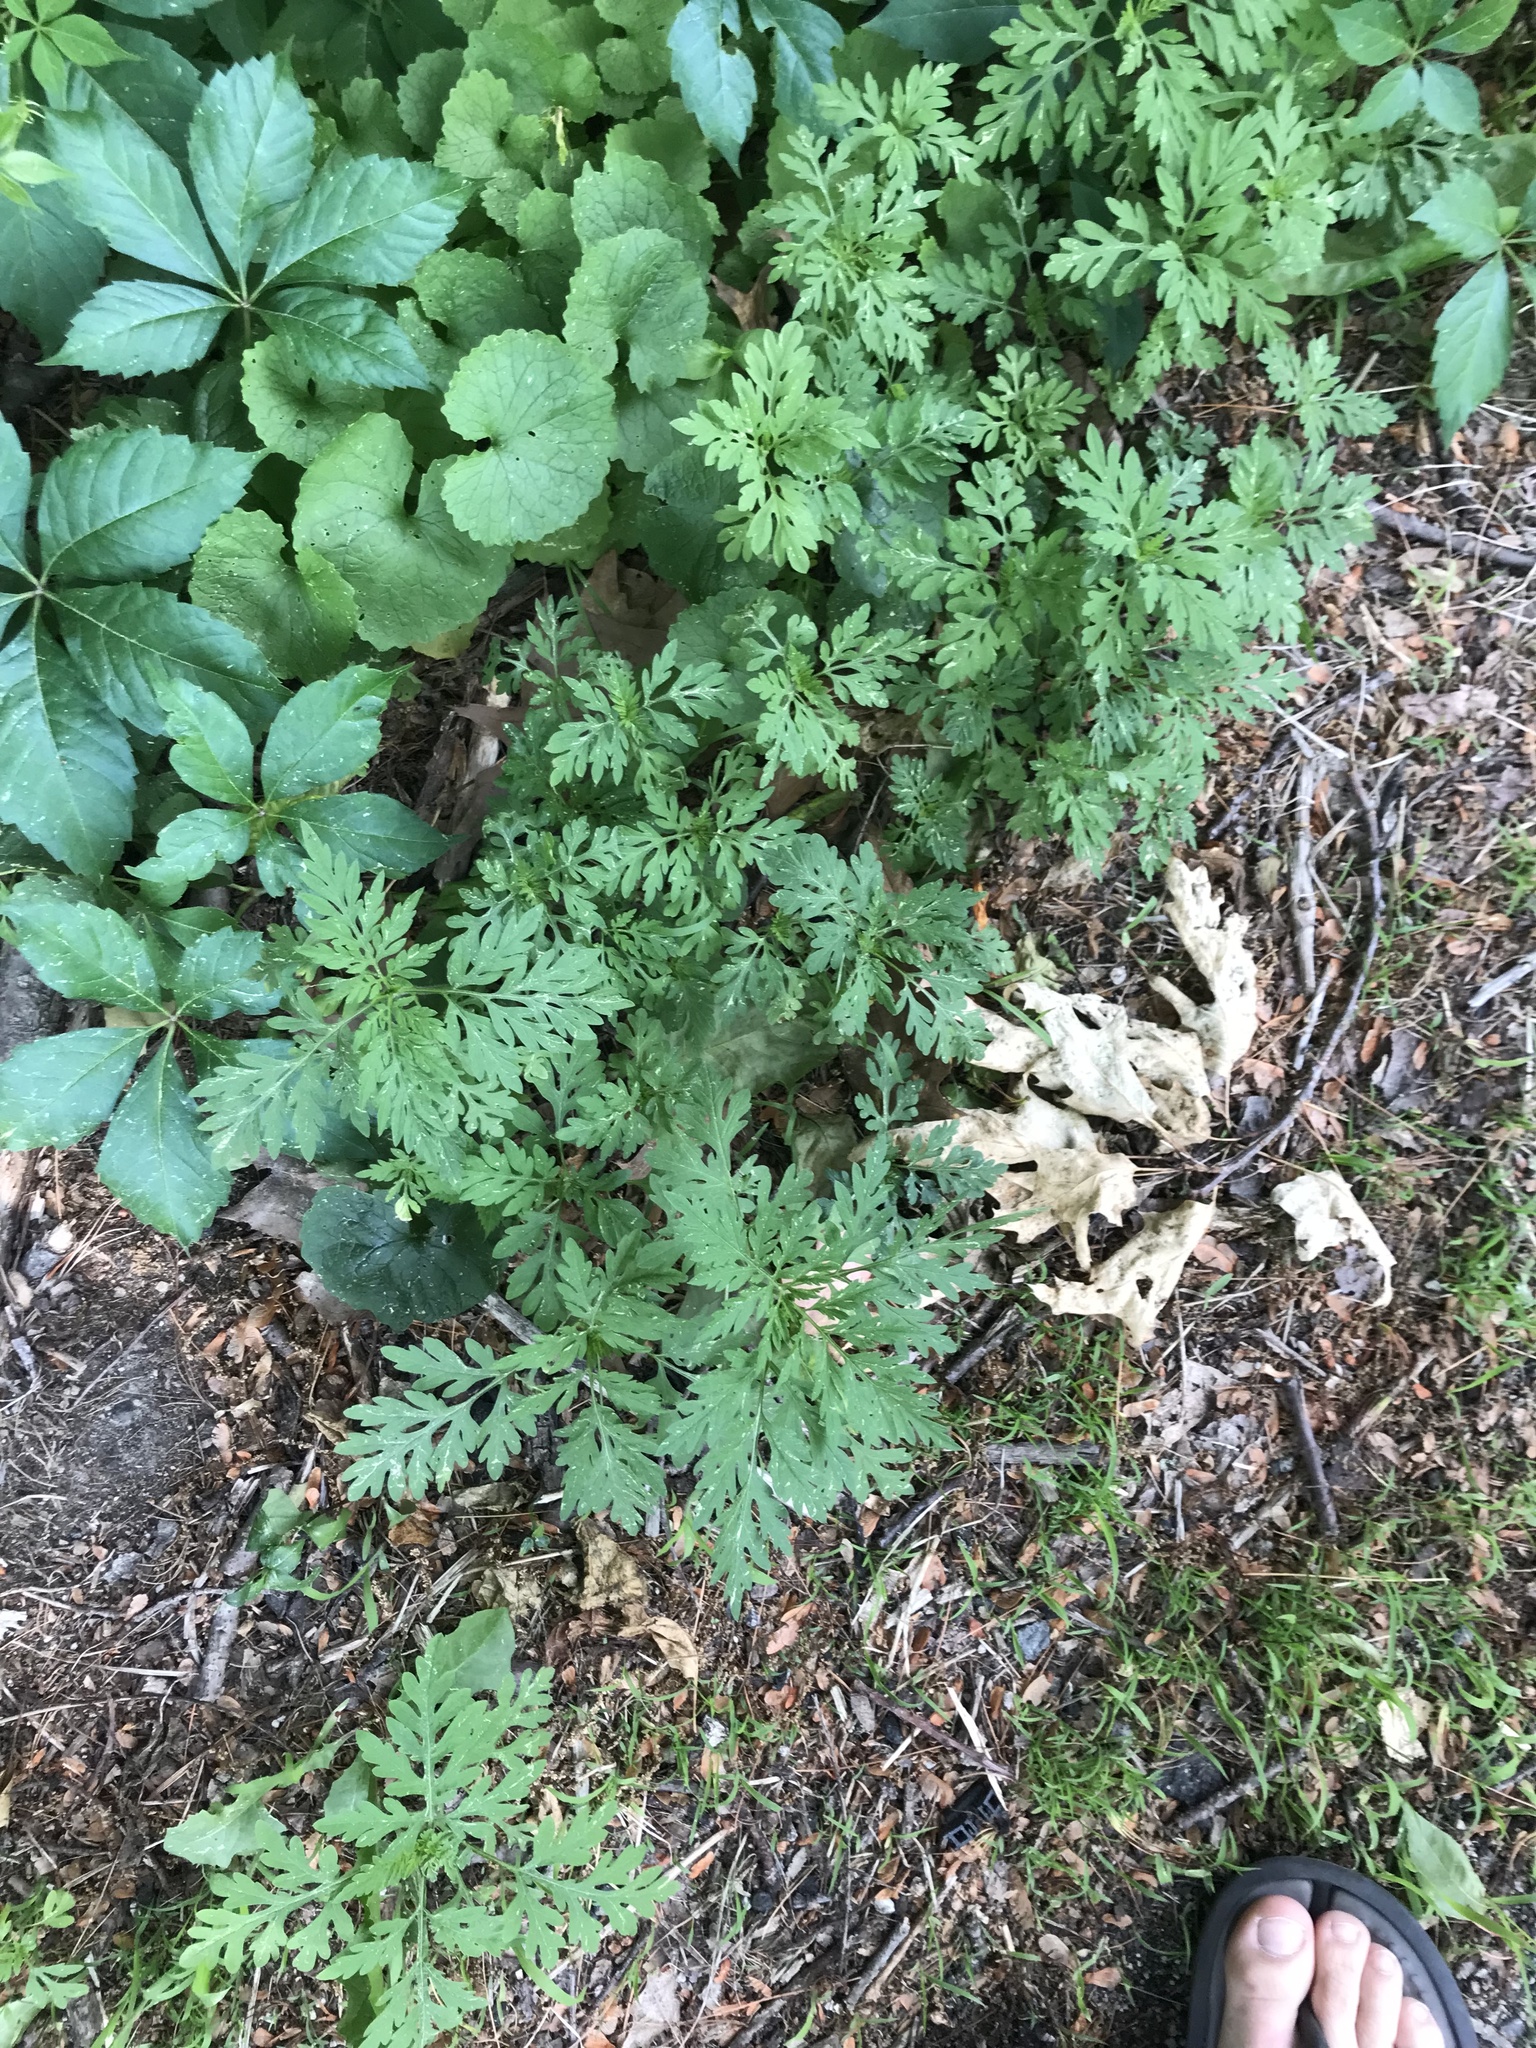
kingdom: Plantae
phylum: Tracheophyta
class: Magnoliopsida
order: Asterales
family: Asteraceae
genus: Ambrosia
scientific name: Ambrosia artemisiifolia
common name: Annual ragweed
